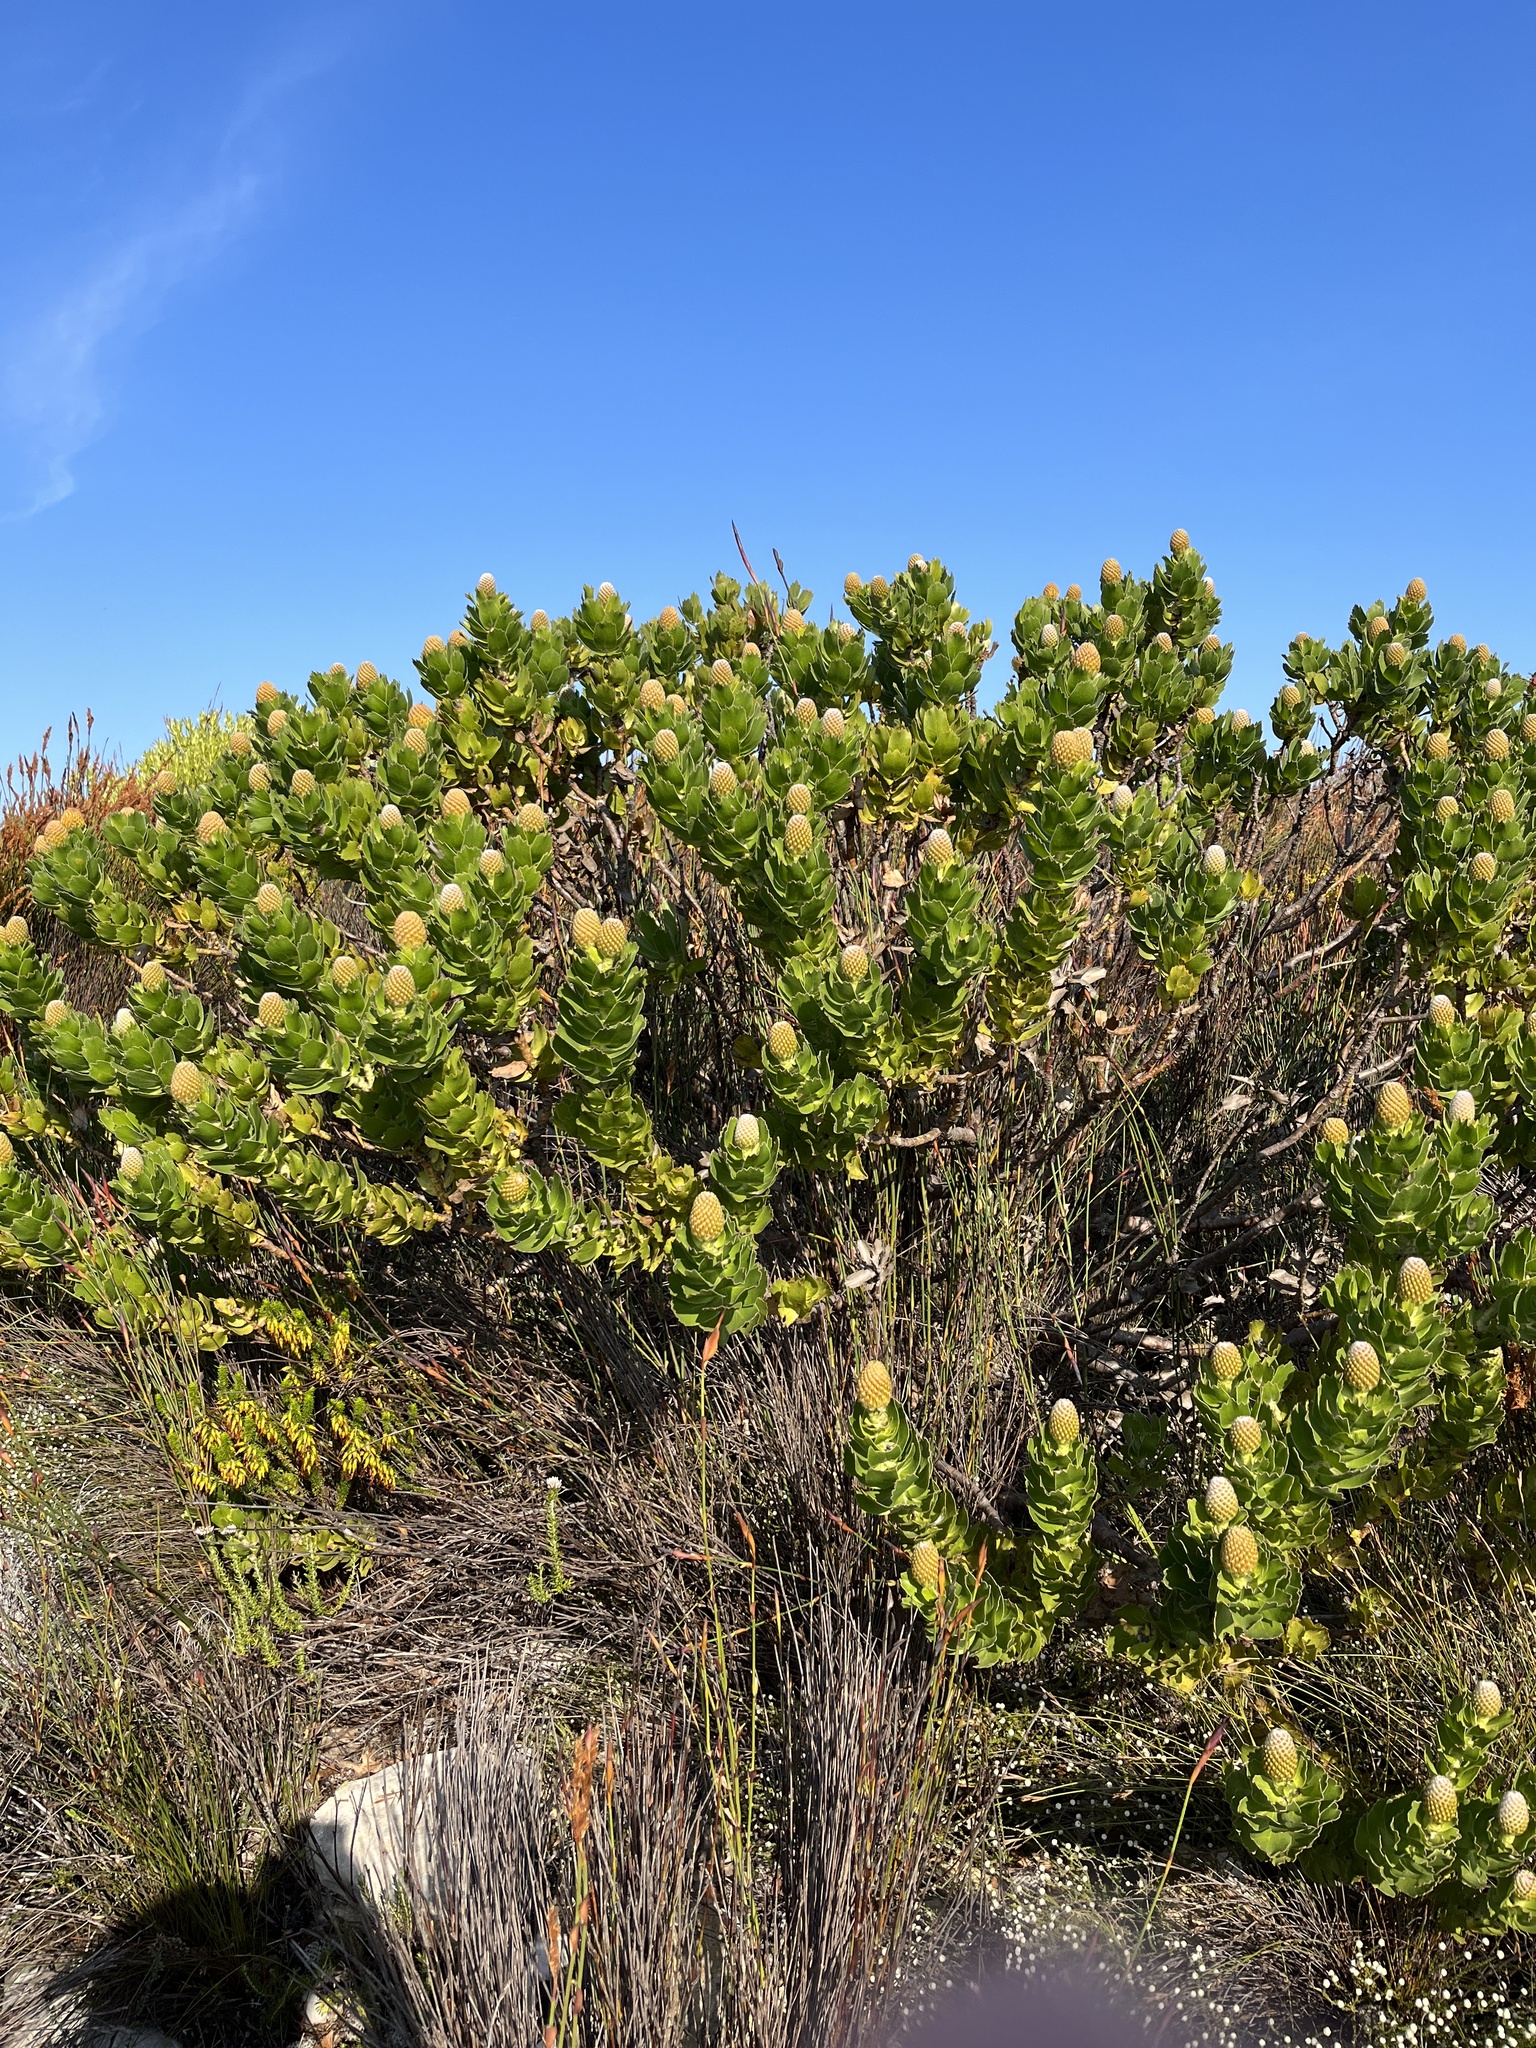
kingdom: Plantae
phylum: Tracheophyta
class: Magnoliopsida
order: Proteales
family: Proteaceae
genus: Leucospermum
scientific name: Leucospermum patersonii
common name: False tree pincushion
